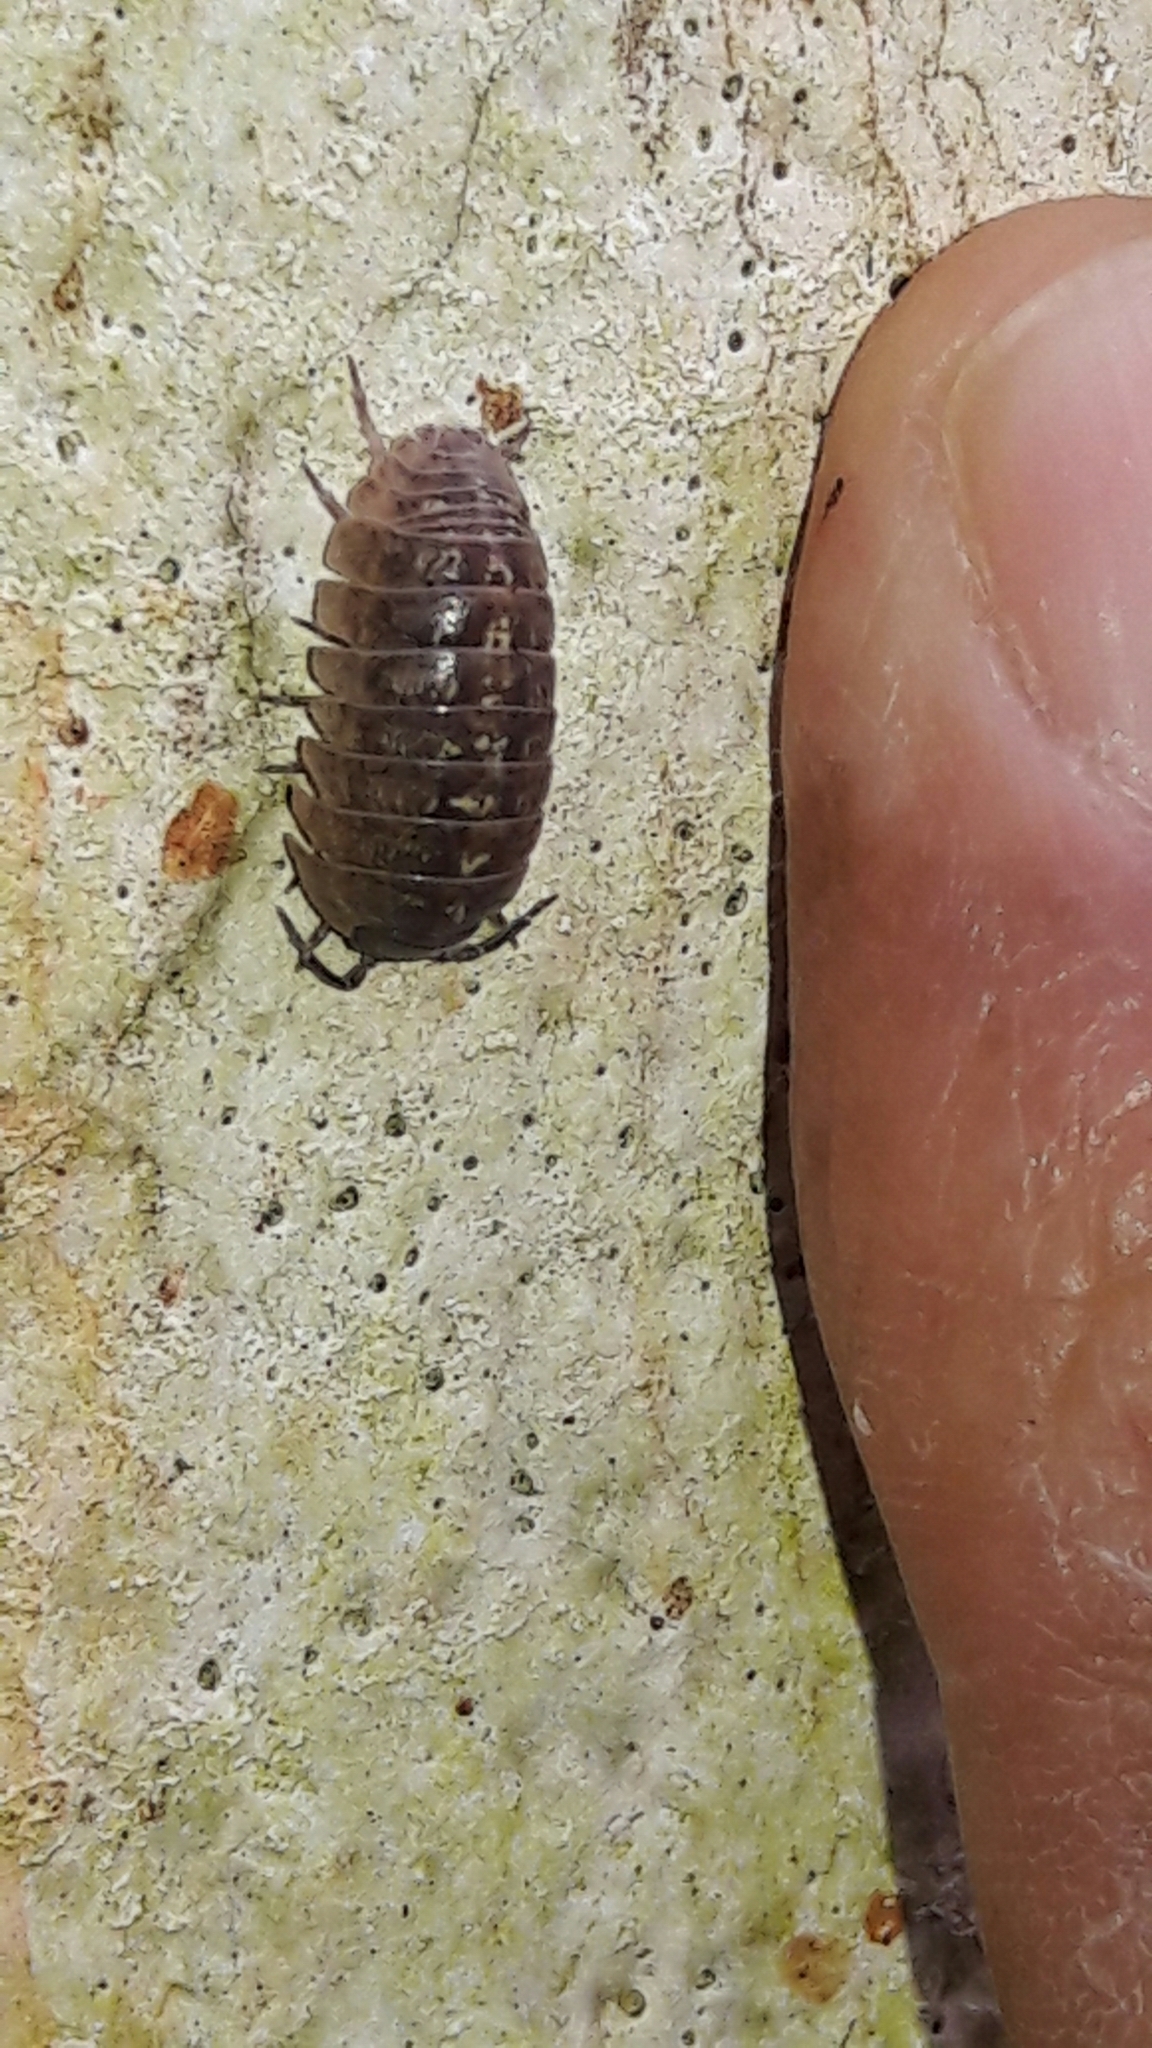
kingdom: Animalia
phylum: Arthropoda
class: Malacostraca
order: Isopoda
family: Armadillidiidae
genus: Armadillidium
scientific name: Armadillidium vulgare
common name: Common pill woodlouse
